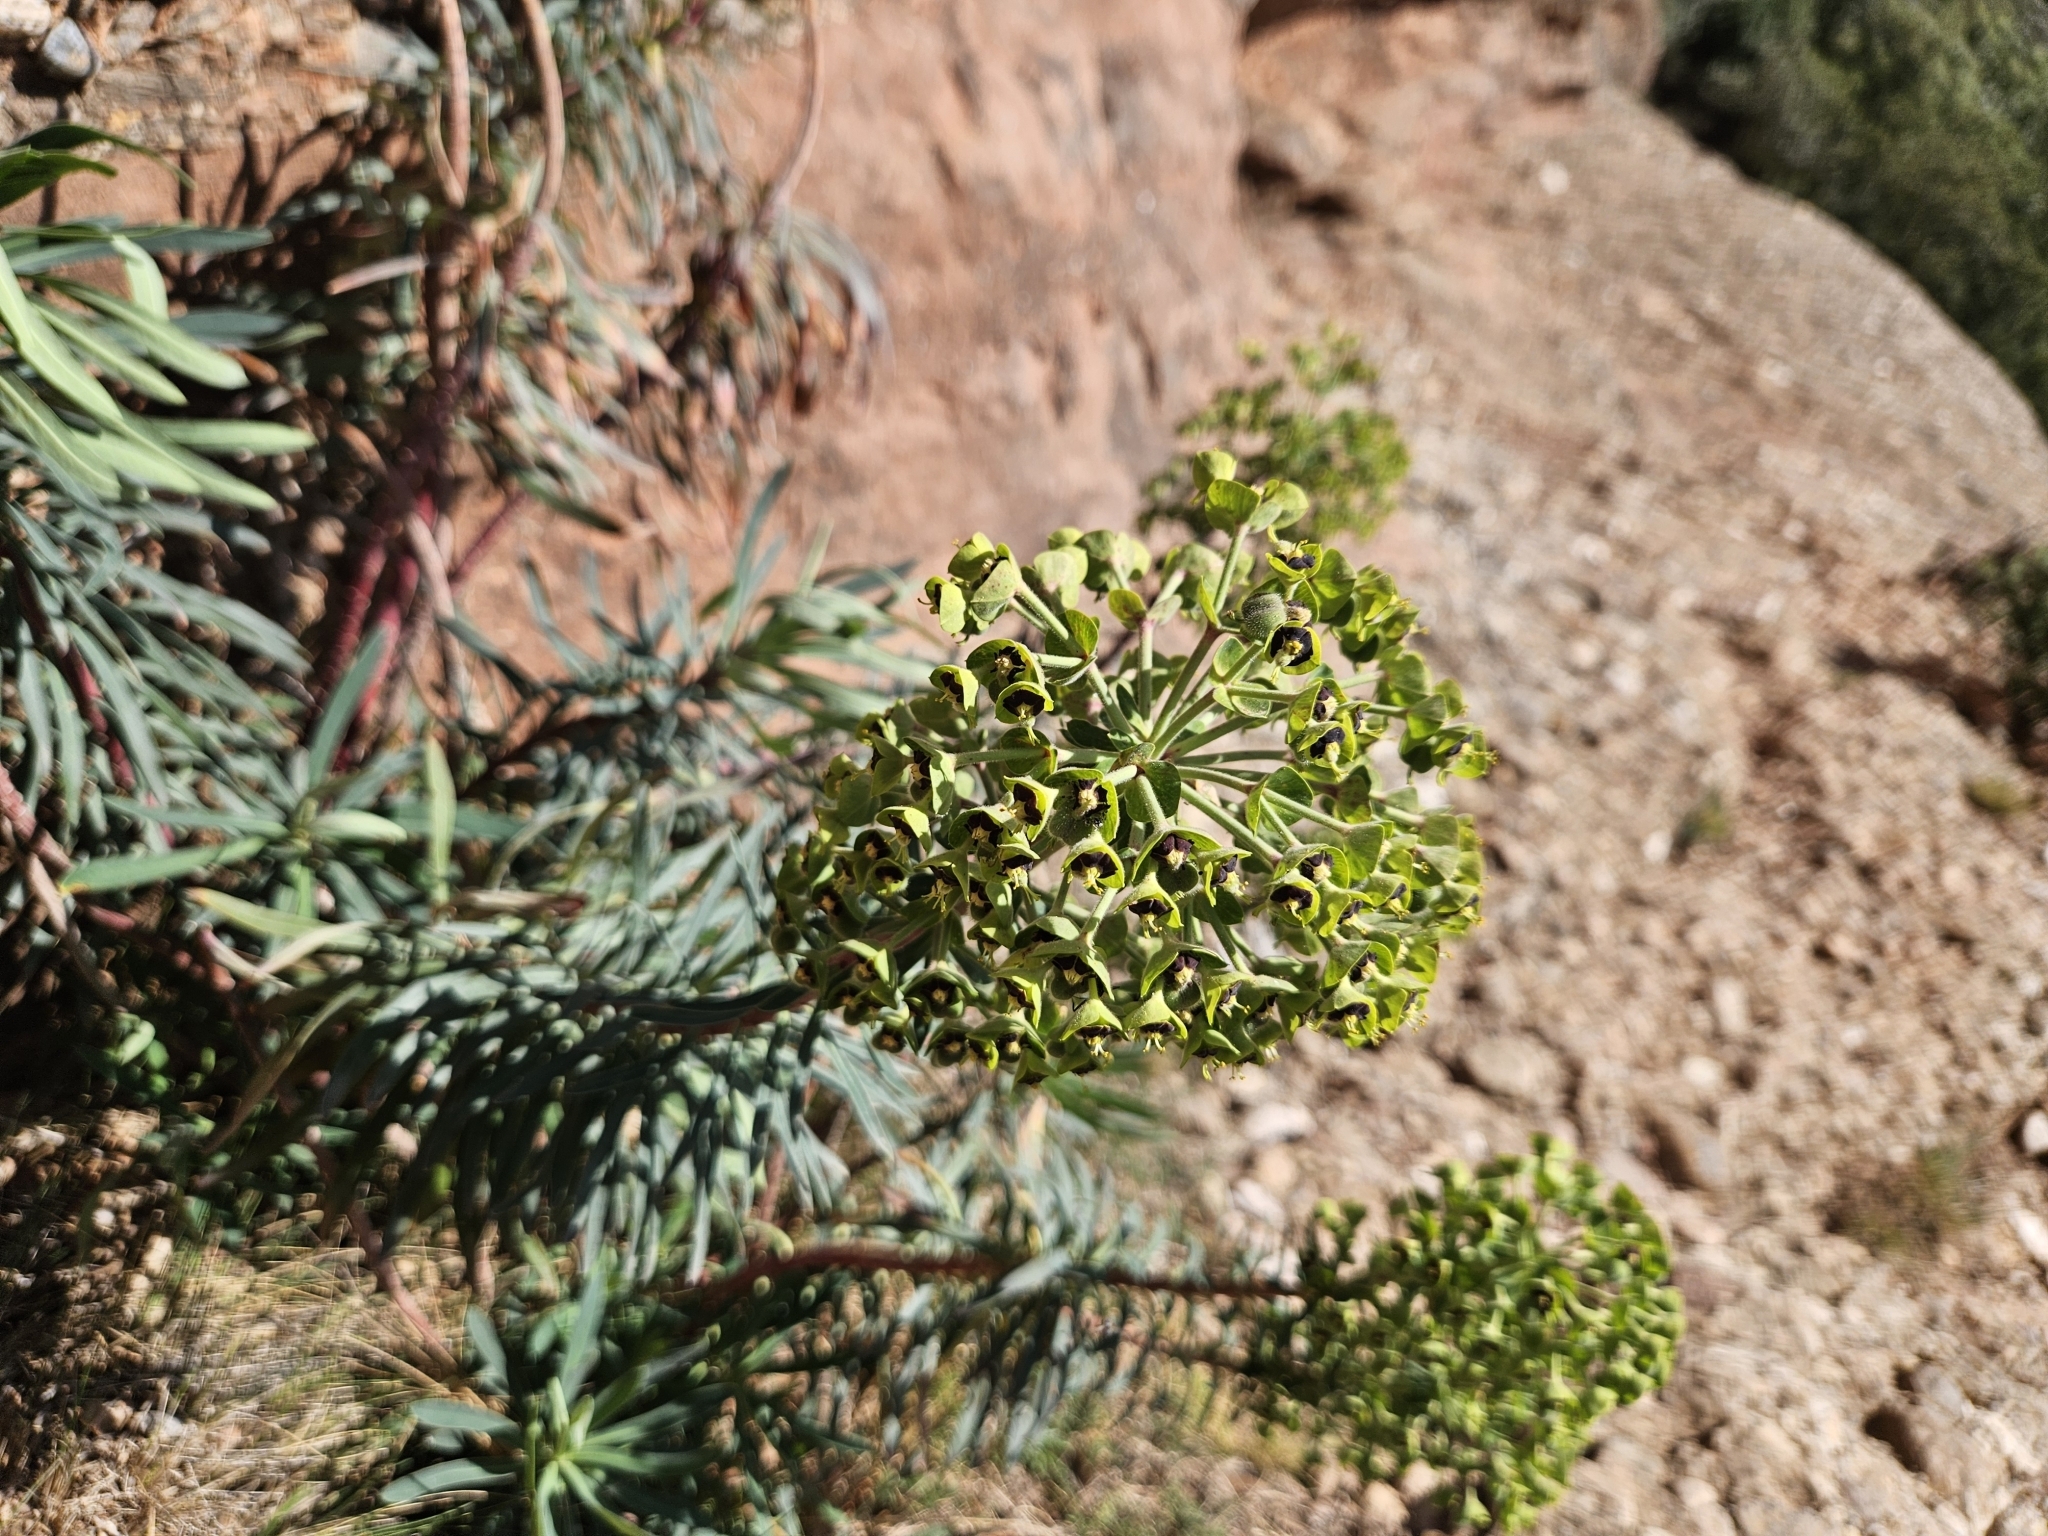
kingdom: Plantae
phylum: Tracheophyta
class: Magnoliopsida
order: Malpighiales
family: Euphorbiaceae
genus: Euphorbia
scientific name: Euphorbia characias
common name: Mediterranean spurge
